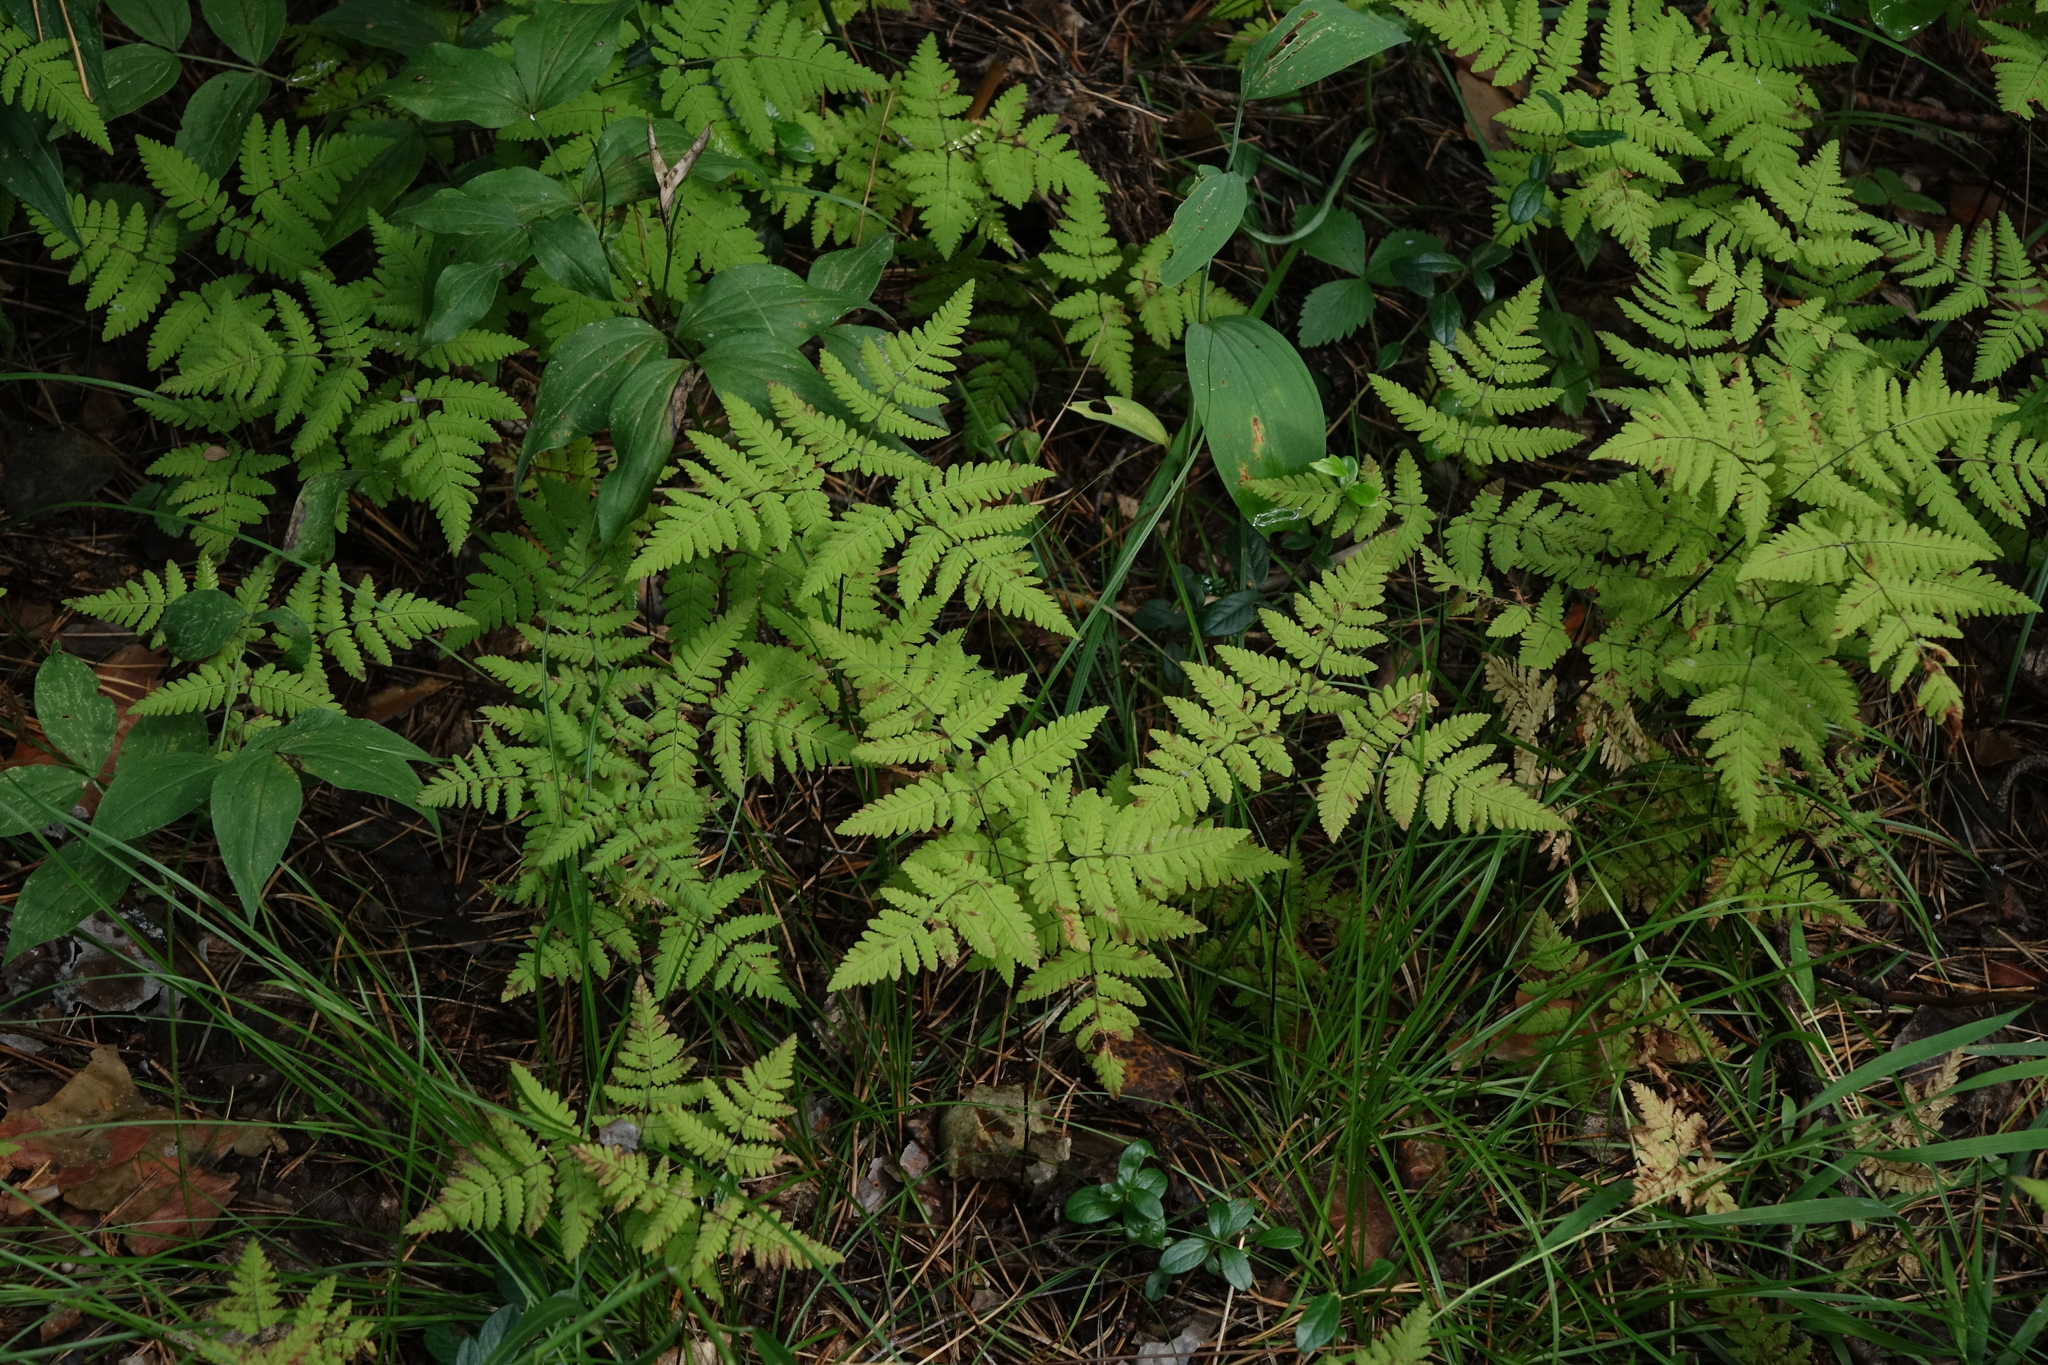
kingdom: Plantae
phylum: Tracheophyta
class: Polypodiopsida
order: Polypodiales
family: Cystopteridaceae
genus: Gymnocarpium
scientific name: Gymnocarpium dryopteris
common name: Oak fern
